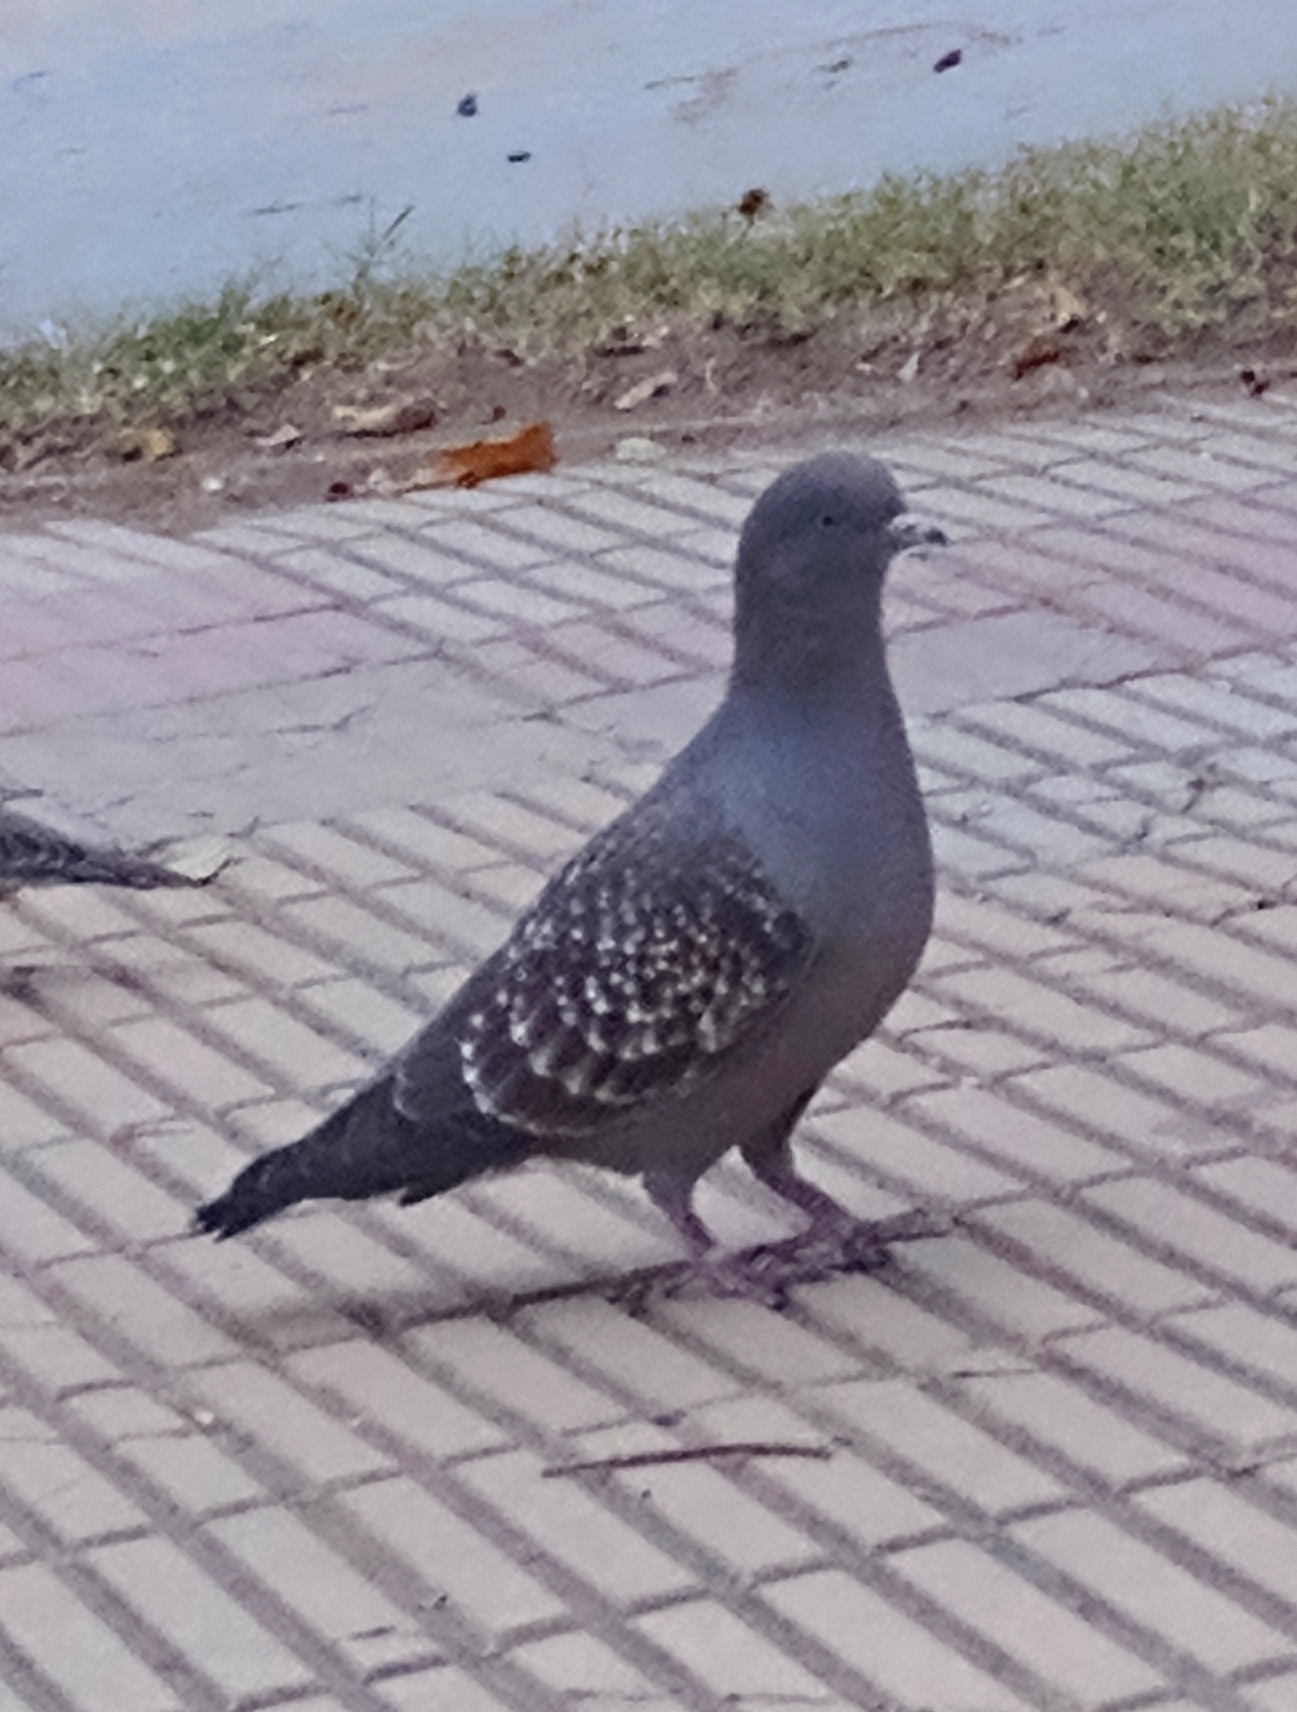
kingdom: Animalia
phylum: Chordata
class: Aves
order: Columbiformes
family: Columbidae
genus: Patagioenas
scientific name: Patagioenas maculosa
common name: Spot-winged pigeon
